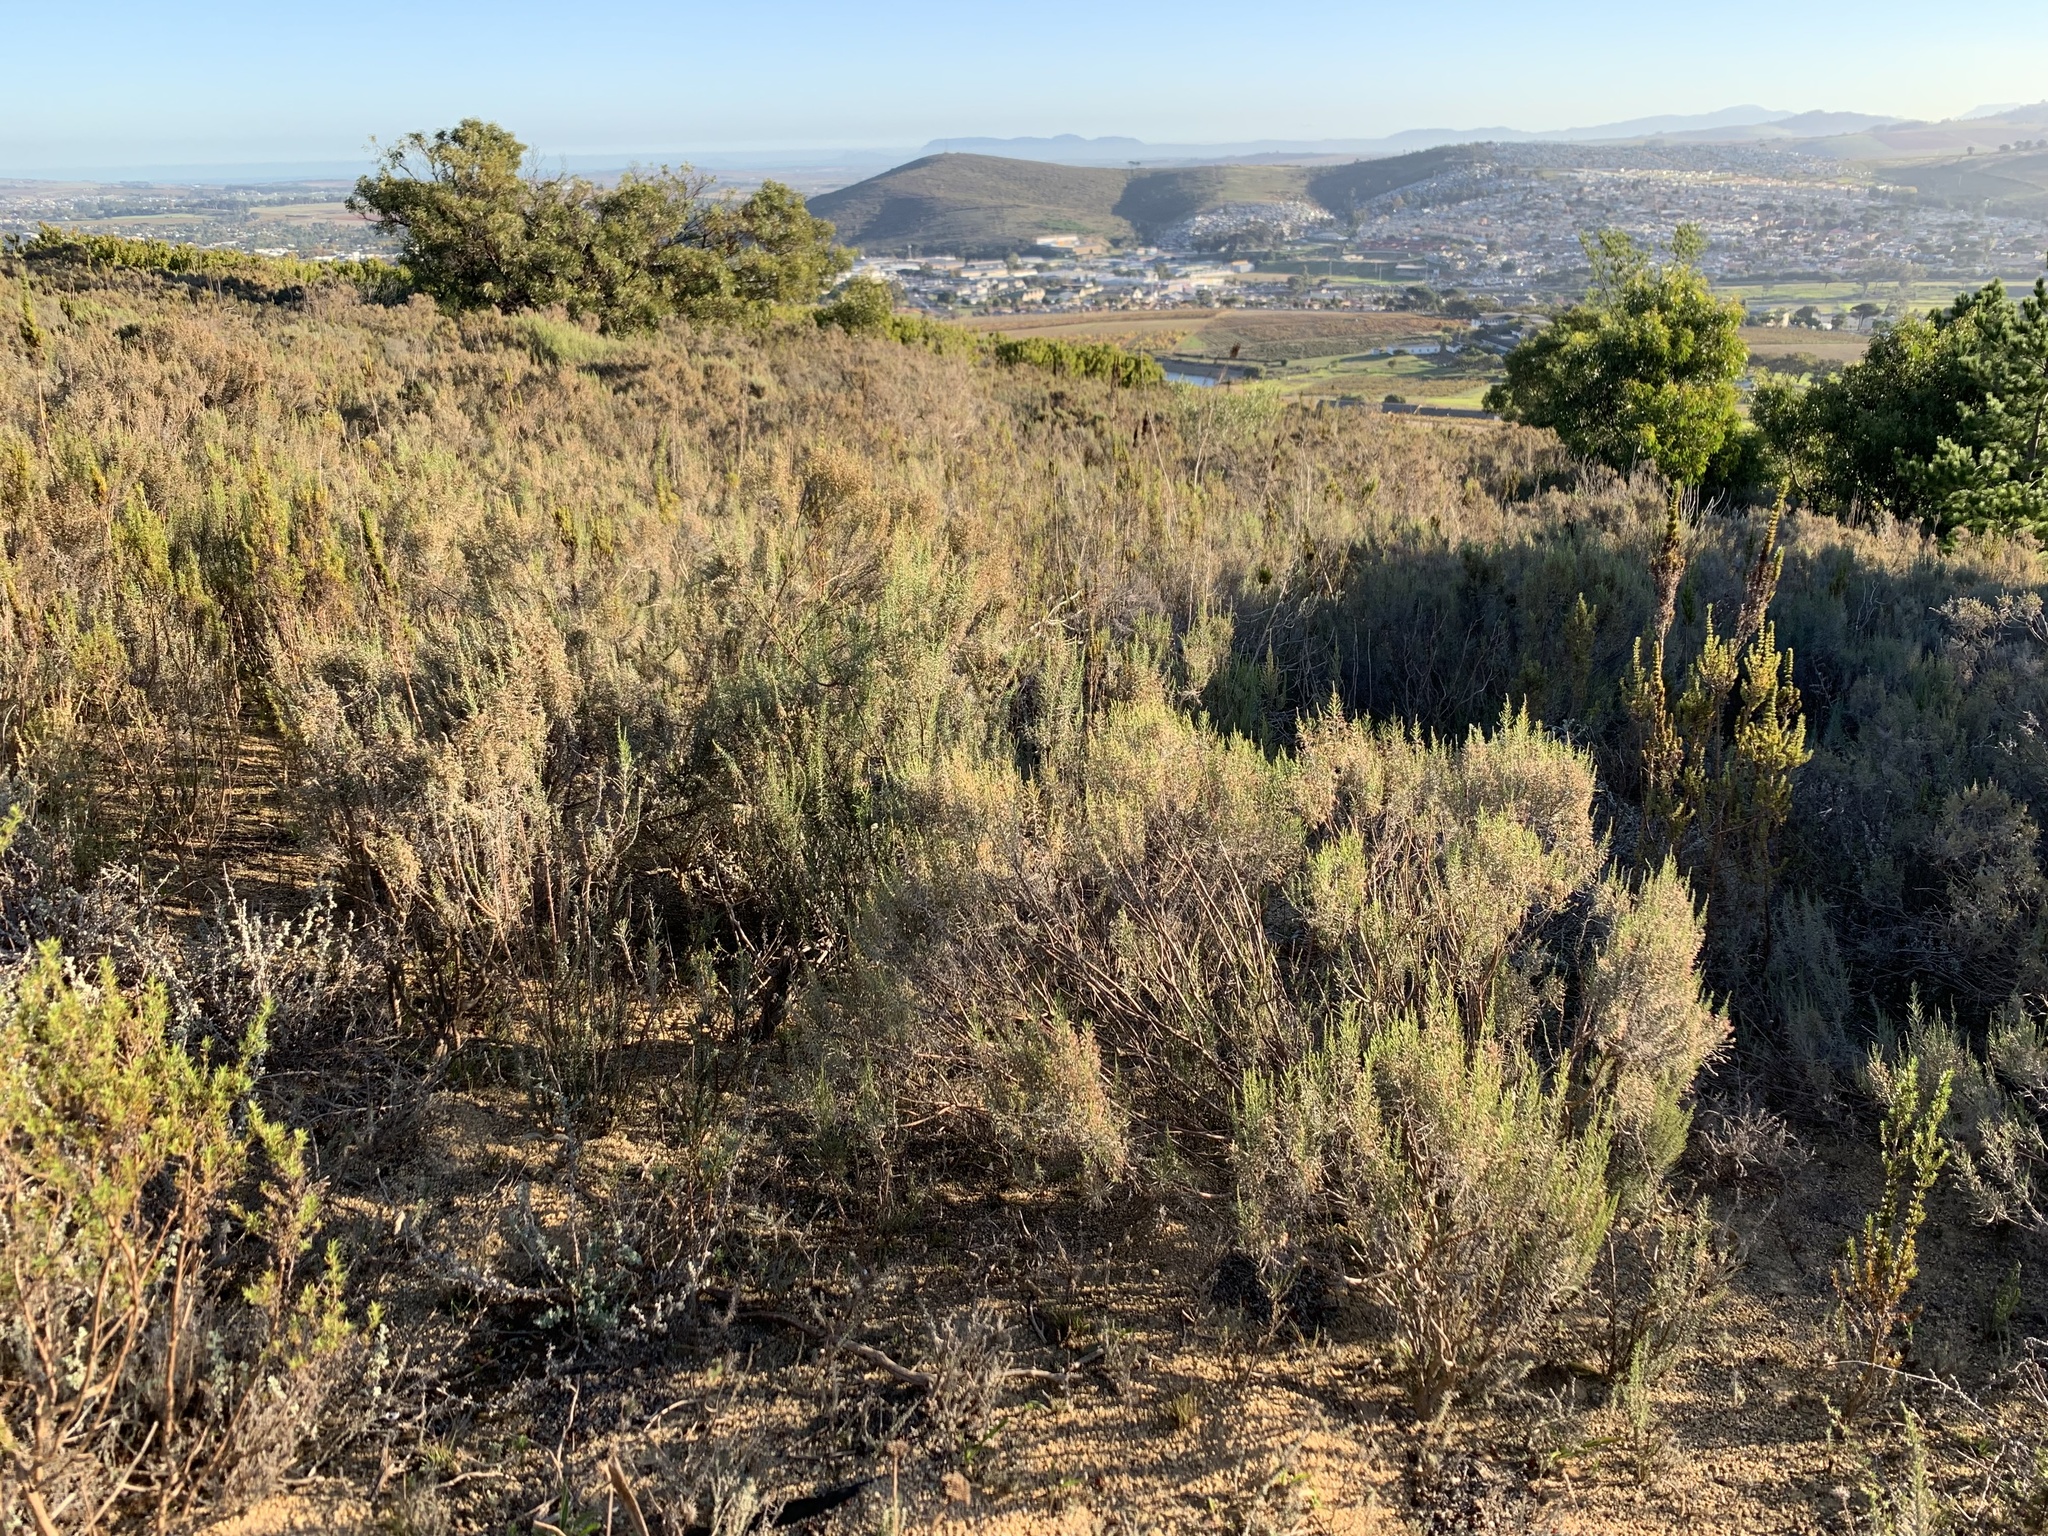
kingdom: Plantae
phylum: Tracheophyta
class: Magnoliopsida
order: Asterales
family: Asteraceae
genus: Dicerothamnus
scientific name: Dicerothamnus rhinocerotis
